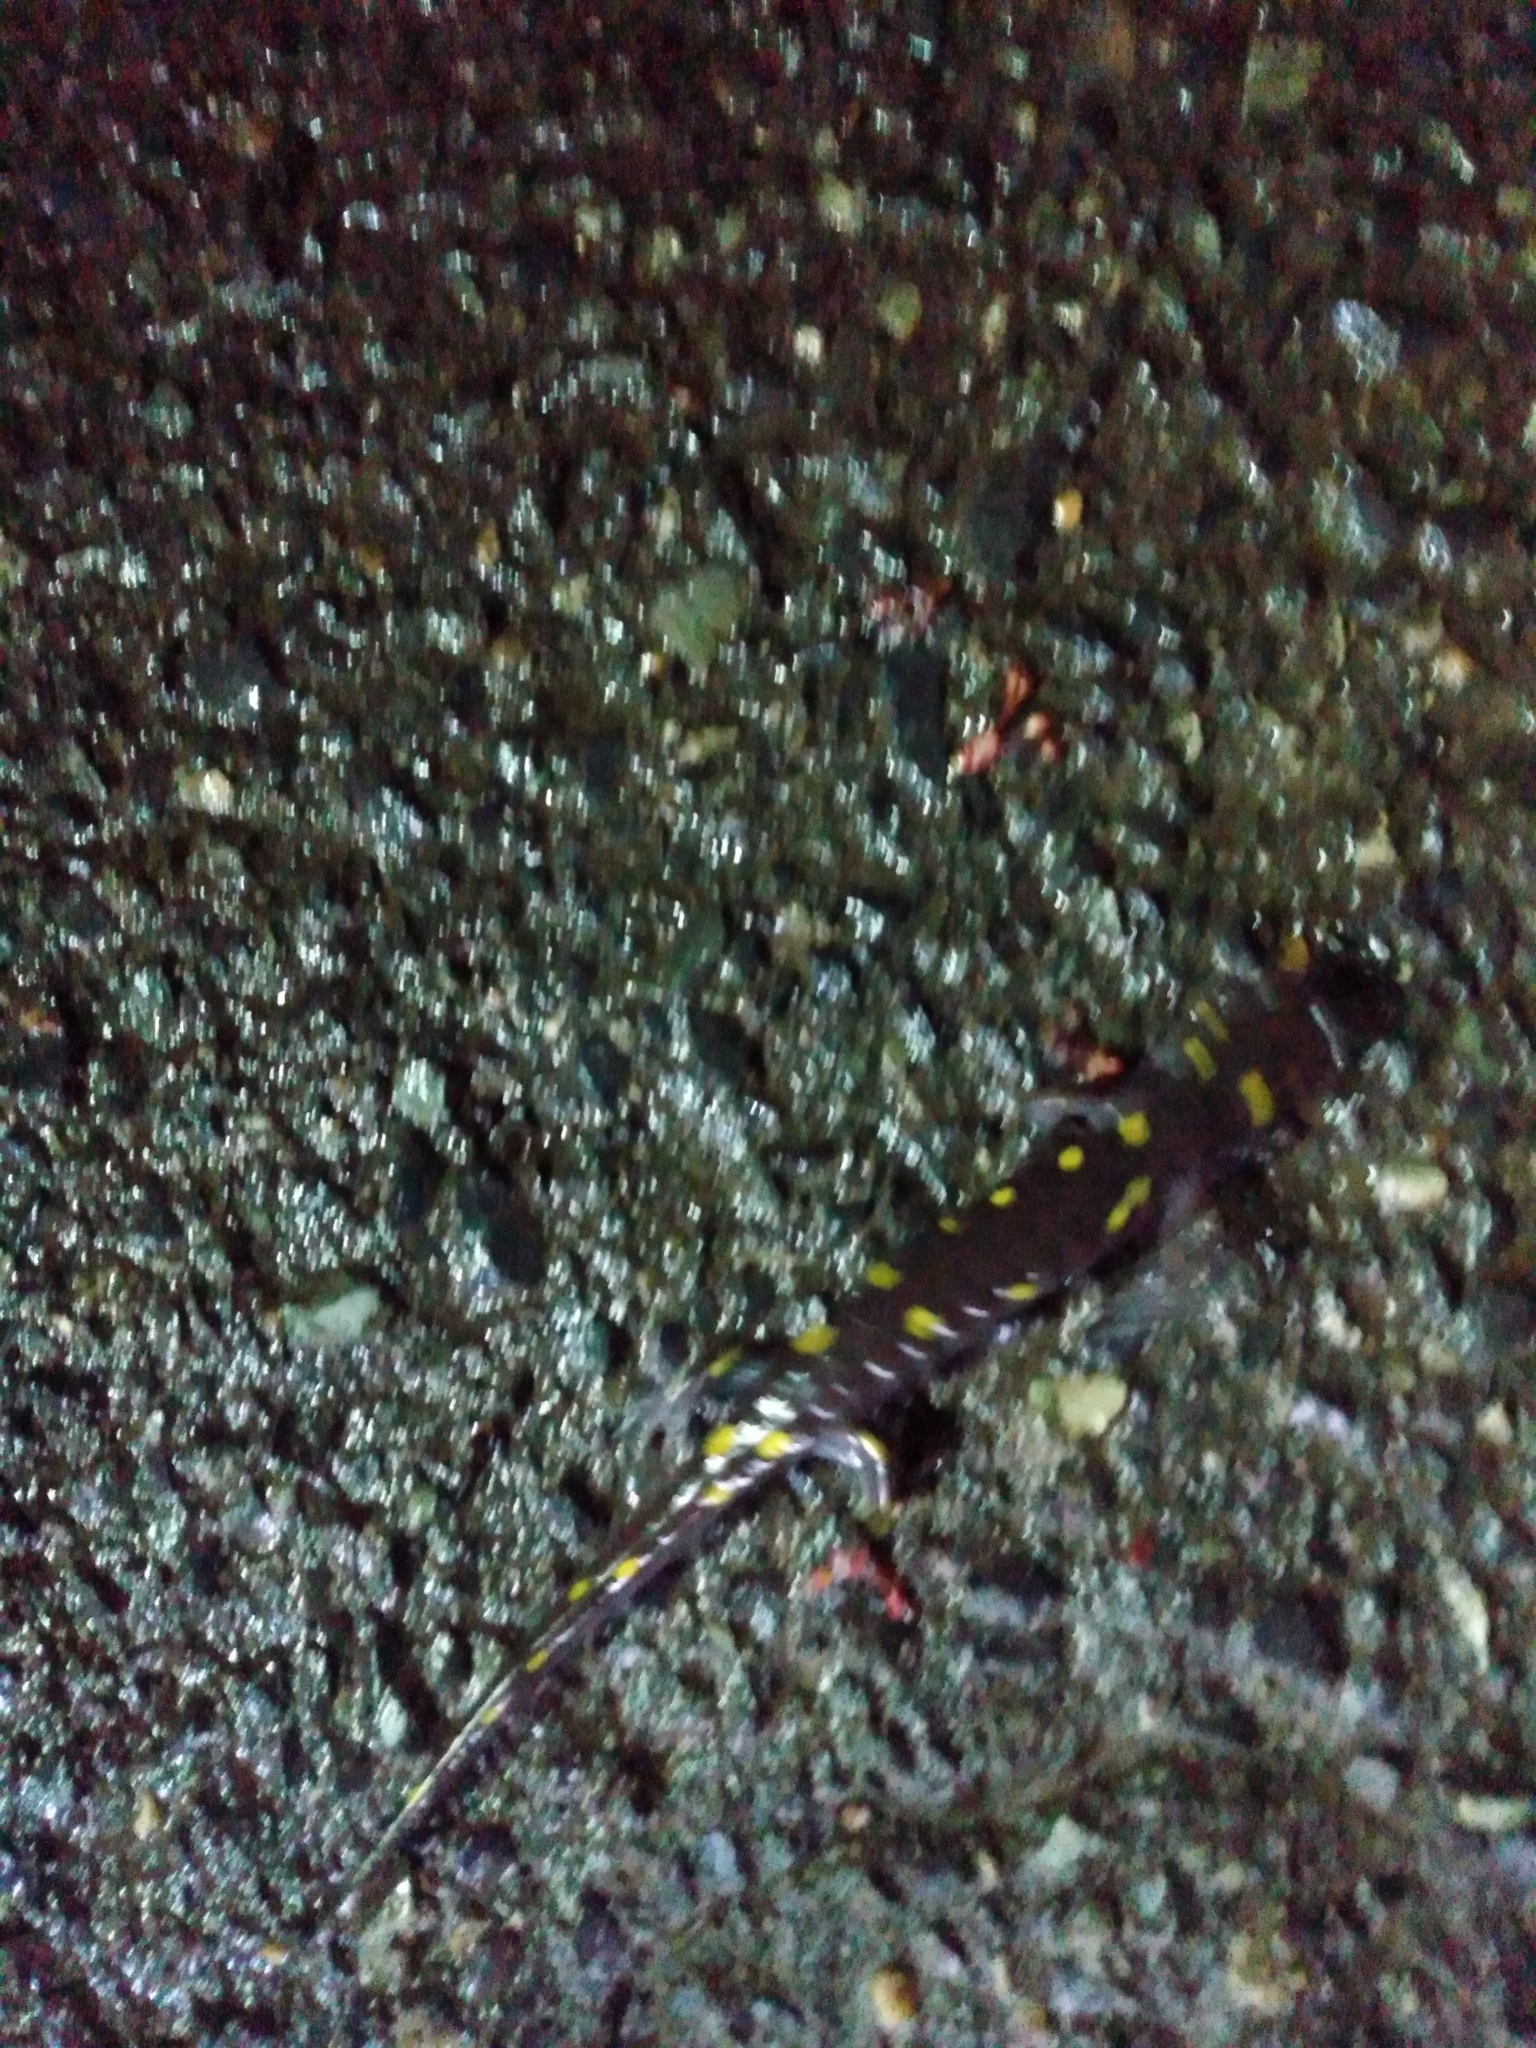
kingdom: Animalia
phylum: Chordata
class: Amphibia
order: Caudata
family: Ambystomatidae
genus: Ambystoma
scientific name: Ambystoma maculatum
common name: Spotted salamander
